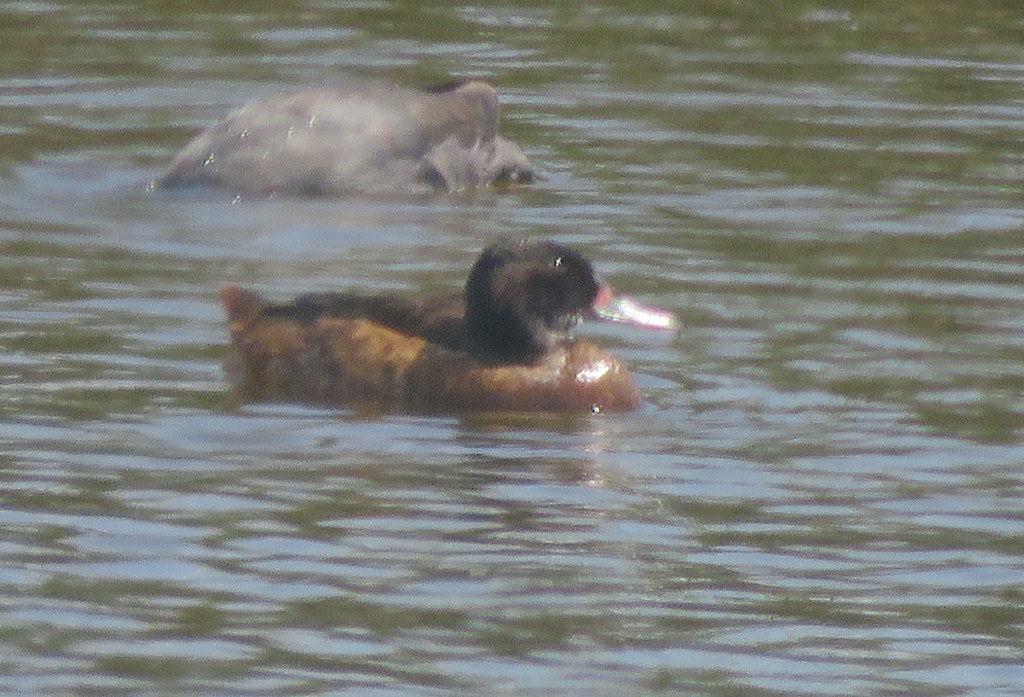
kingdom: Animalia
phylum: Chordata
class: Aves
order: Anseriformes
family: Anatidae
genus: Heteronetta
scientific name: Heteronetta atricapilla
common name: Black-headed duck
